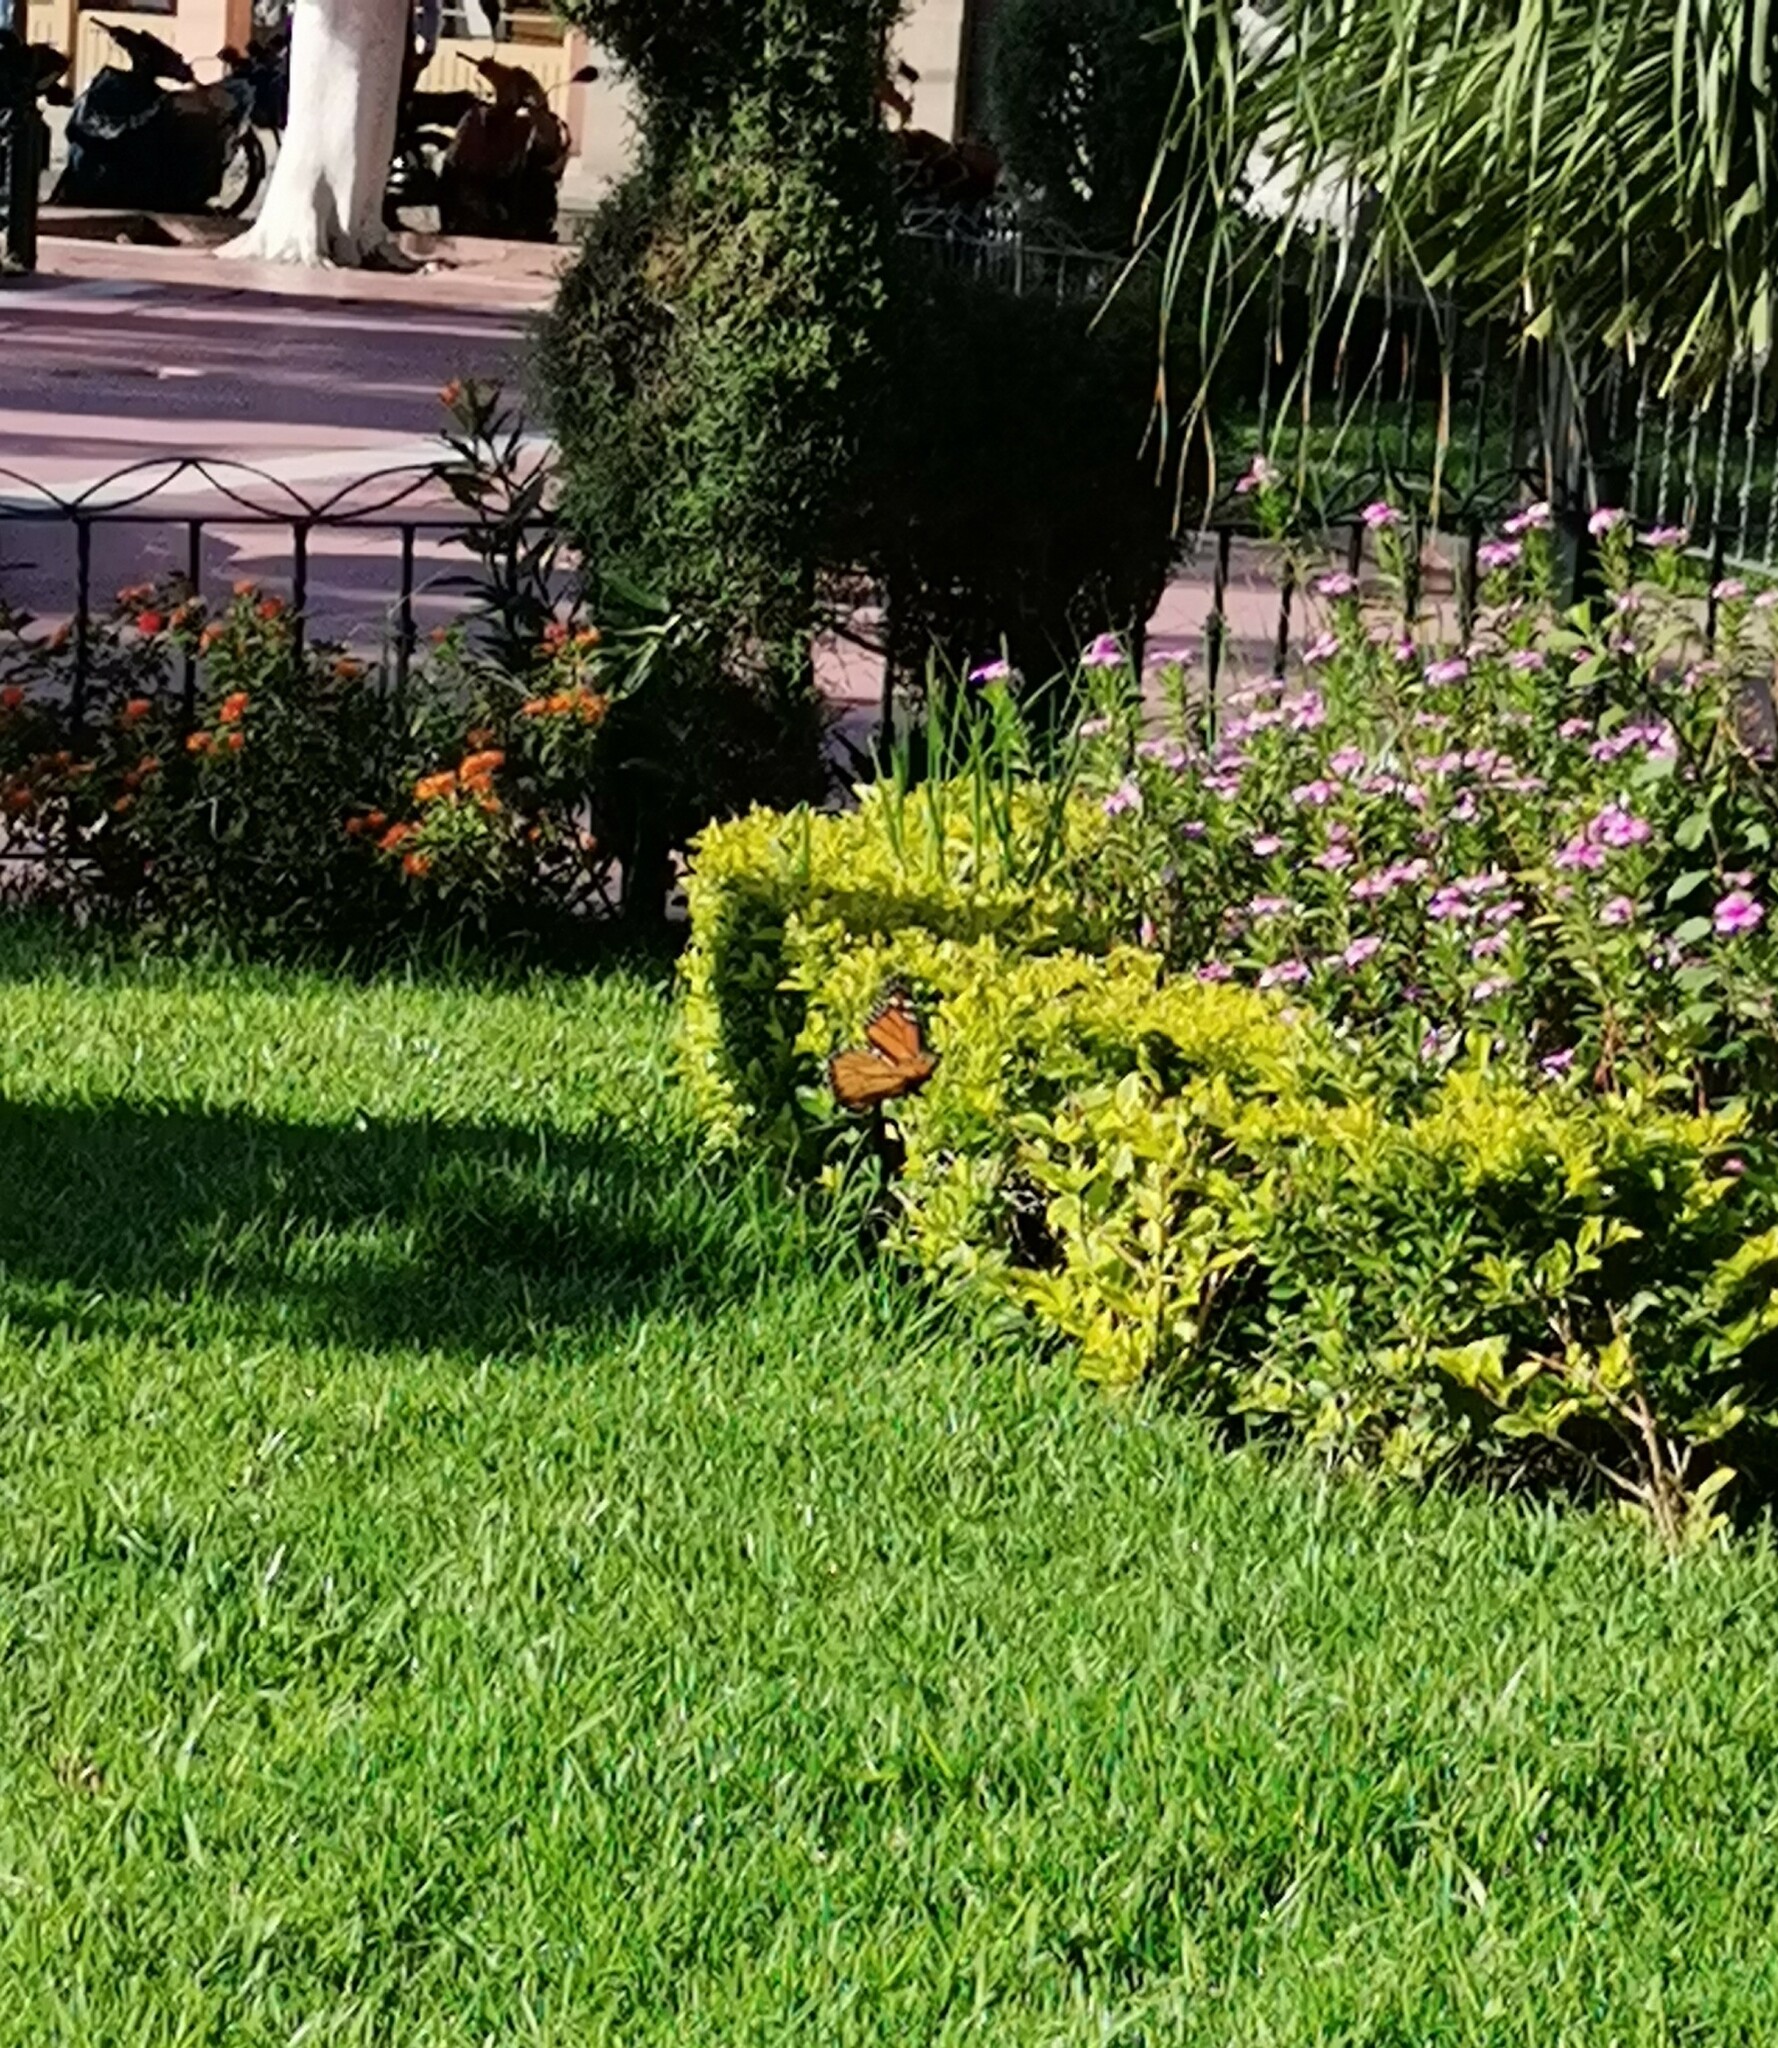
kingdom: Animalia
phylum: Arthropoda
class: Insecta
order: Lepidoptera
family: Nymphalidae
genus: Danaus
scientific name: Danaus plexippus
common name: Monarch
